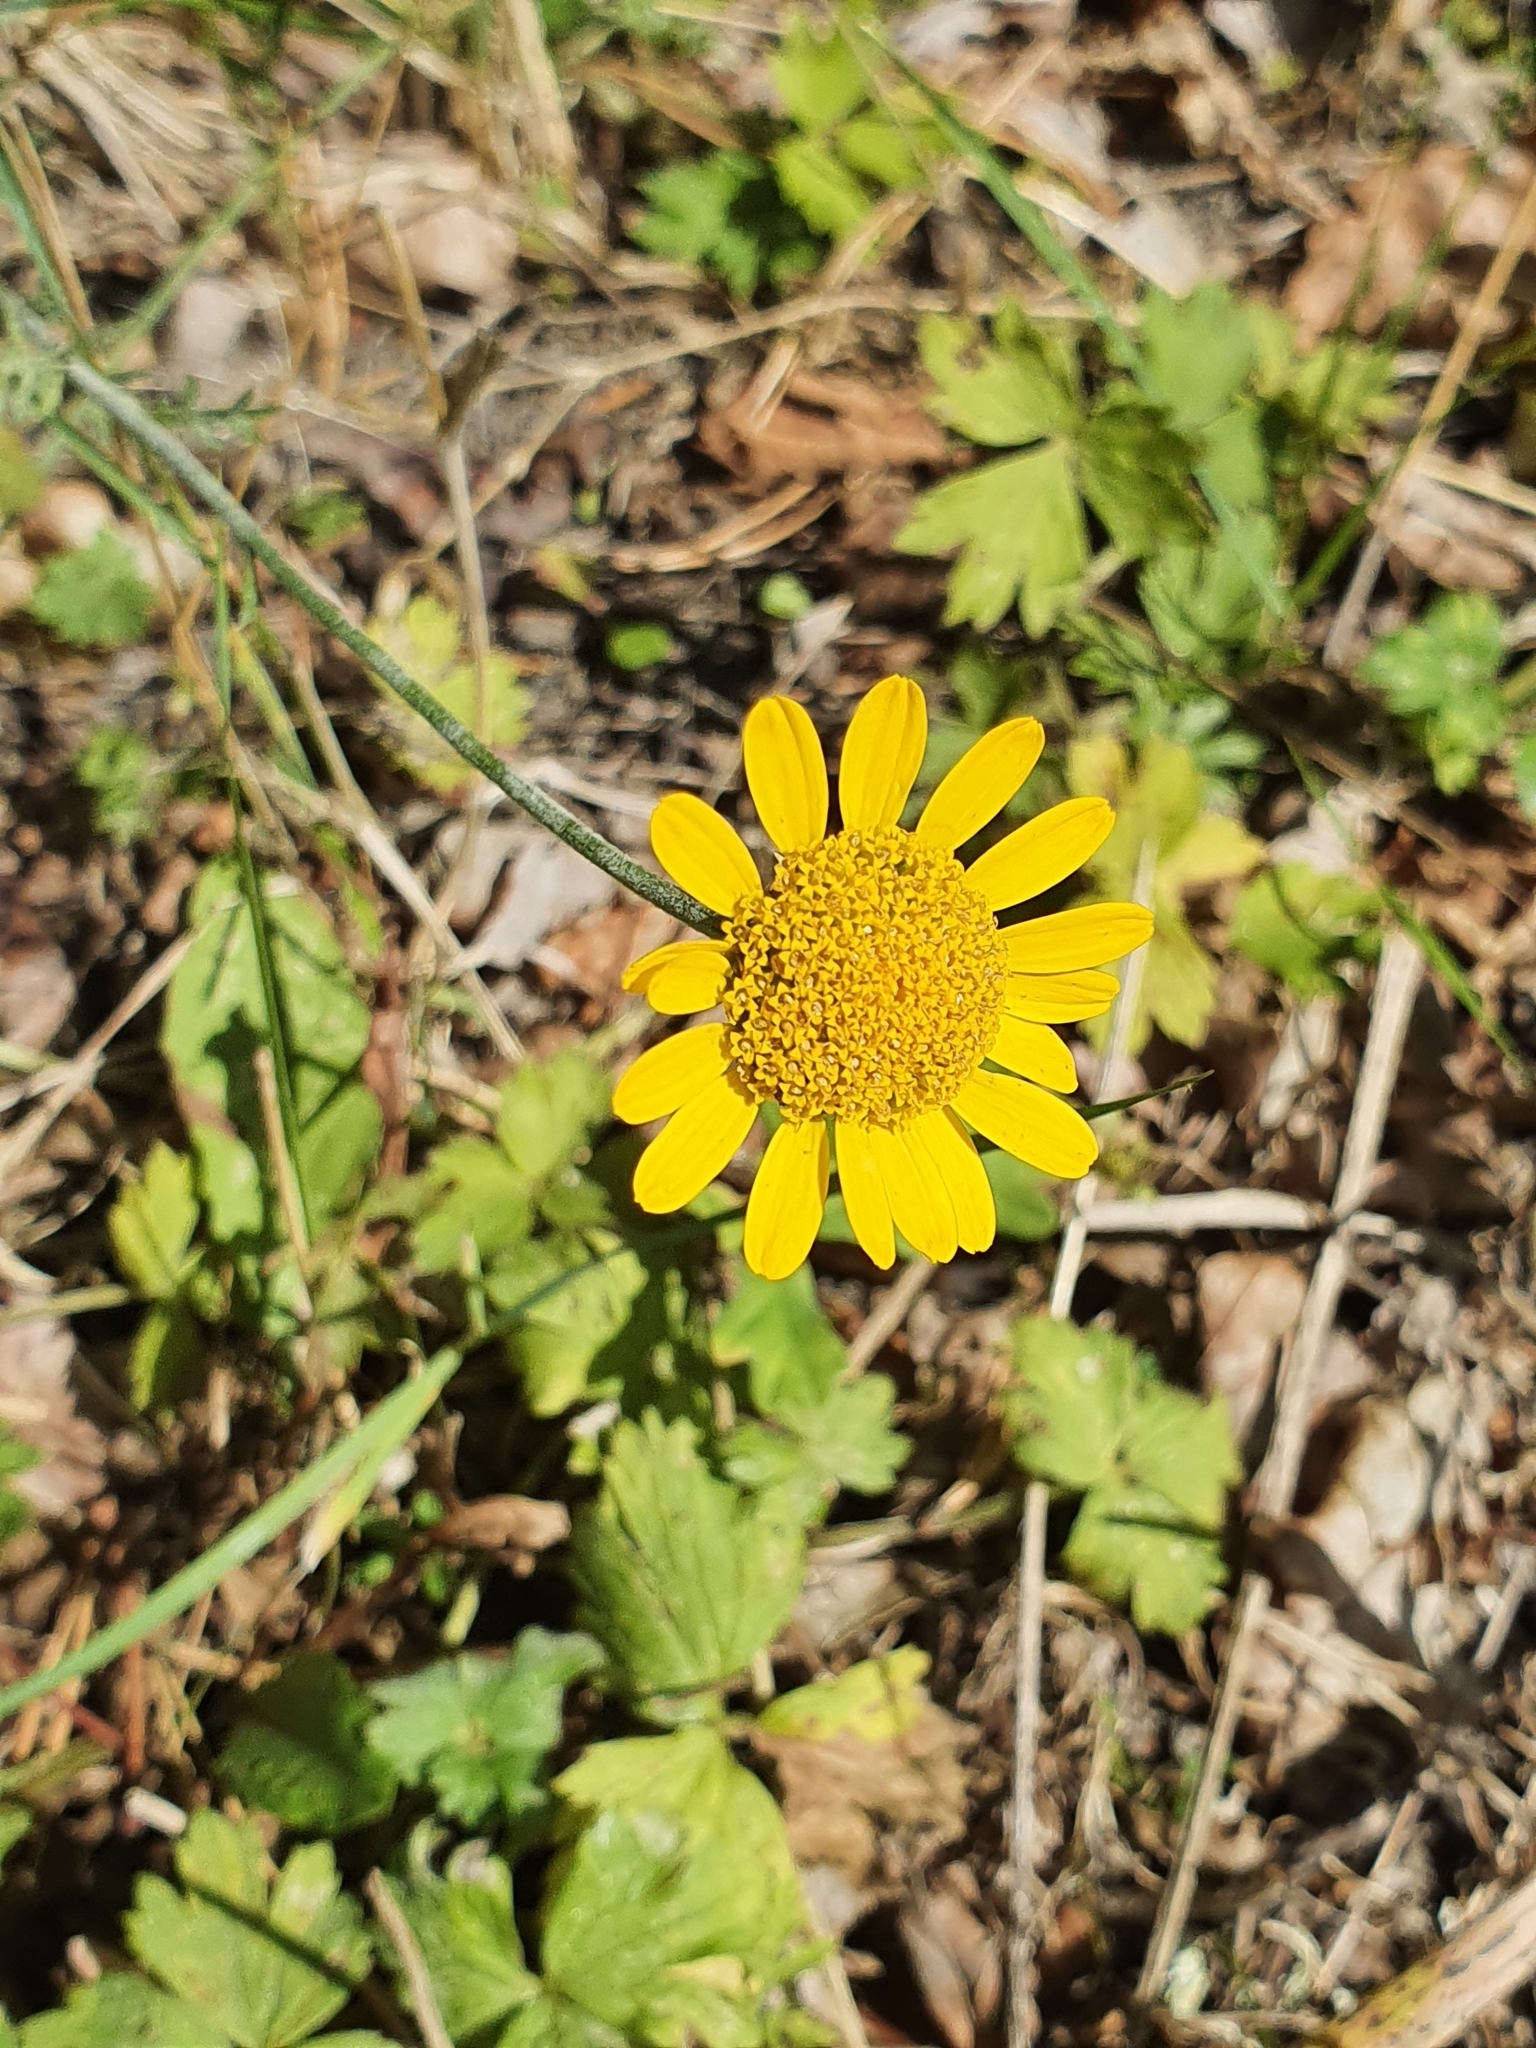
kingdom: Plantae
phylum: Tracheophyta
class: Magnoliopsida
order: Asterales
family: Asteraceae
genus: Cota
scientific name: Cota tinctoria
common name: Golden chamomile
